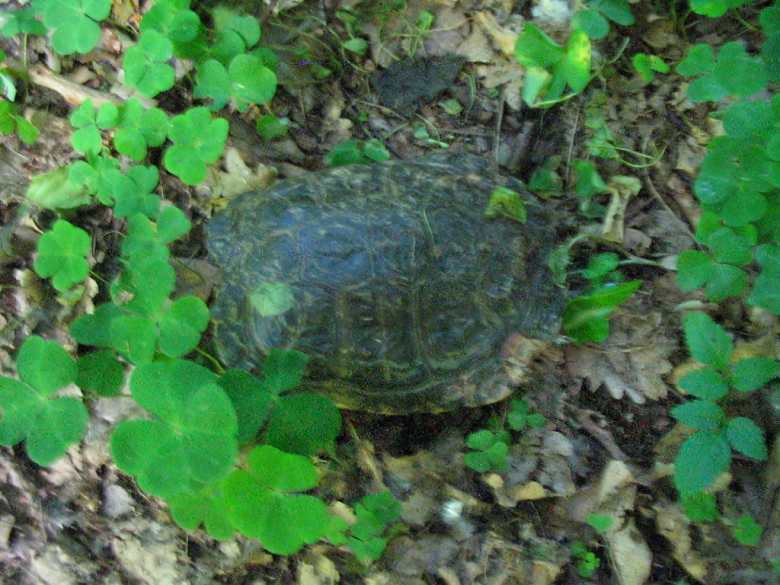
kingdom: Animalia
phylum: Chordata
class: Testudines
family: Emydidae
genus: Trachemys
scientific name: Trachemys scripta
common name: Slider
